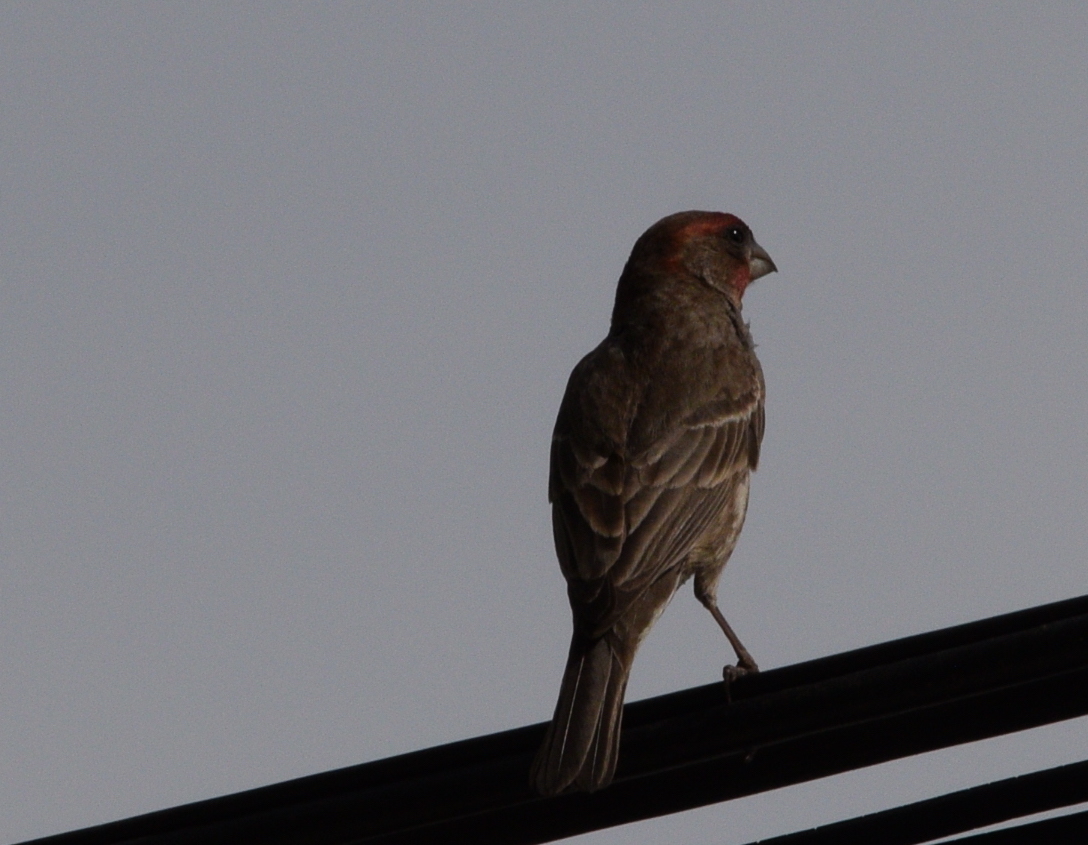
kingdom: Animalia
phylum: Chordata
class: Aves
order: Passeriformes
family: Fringillidae
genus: Haemorhous
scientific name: Haemorhous mexicanus
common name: House finch
